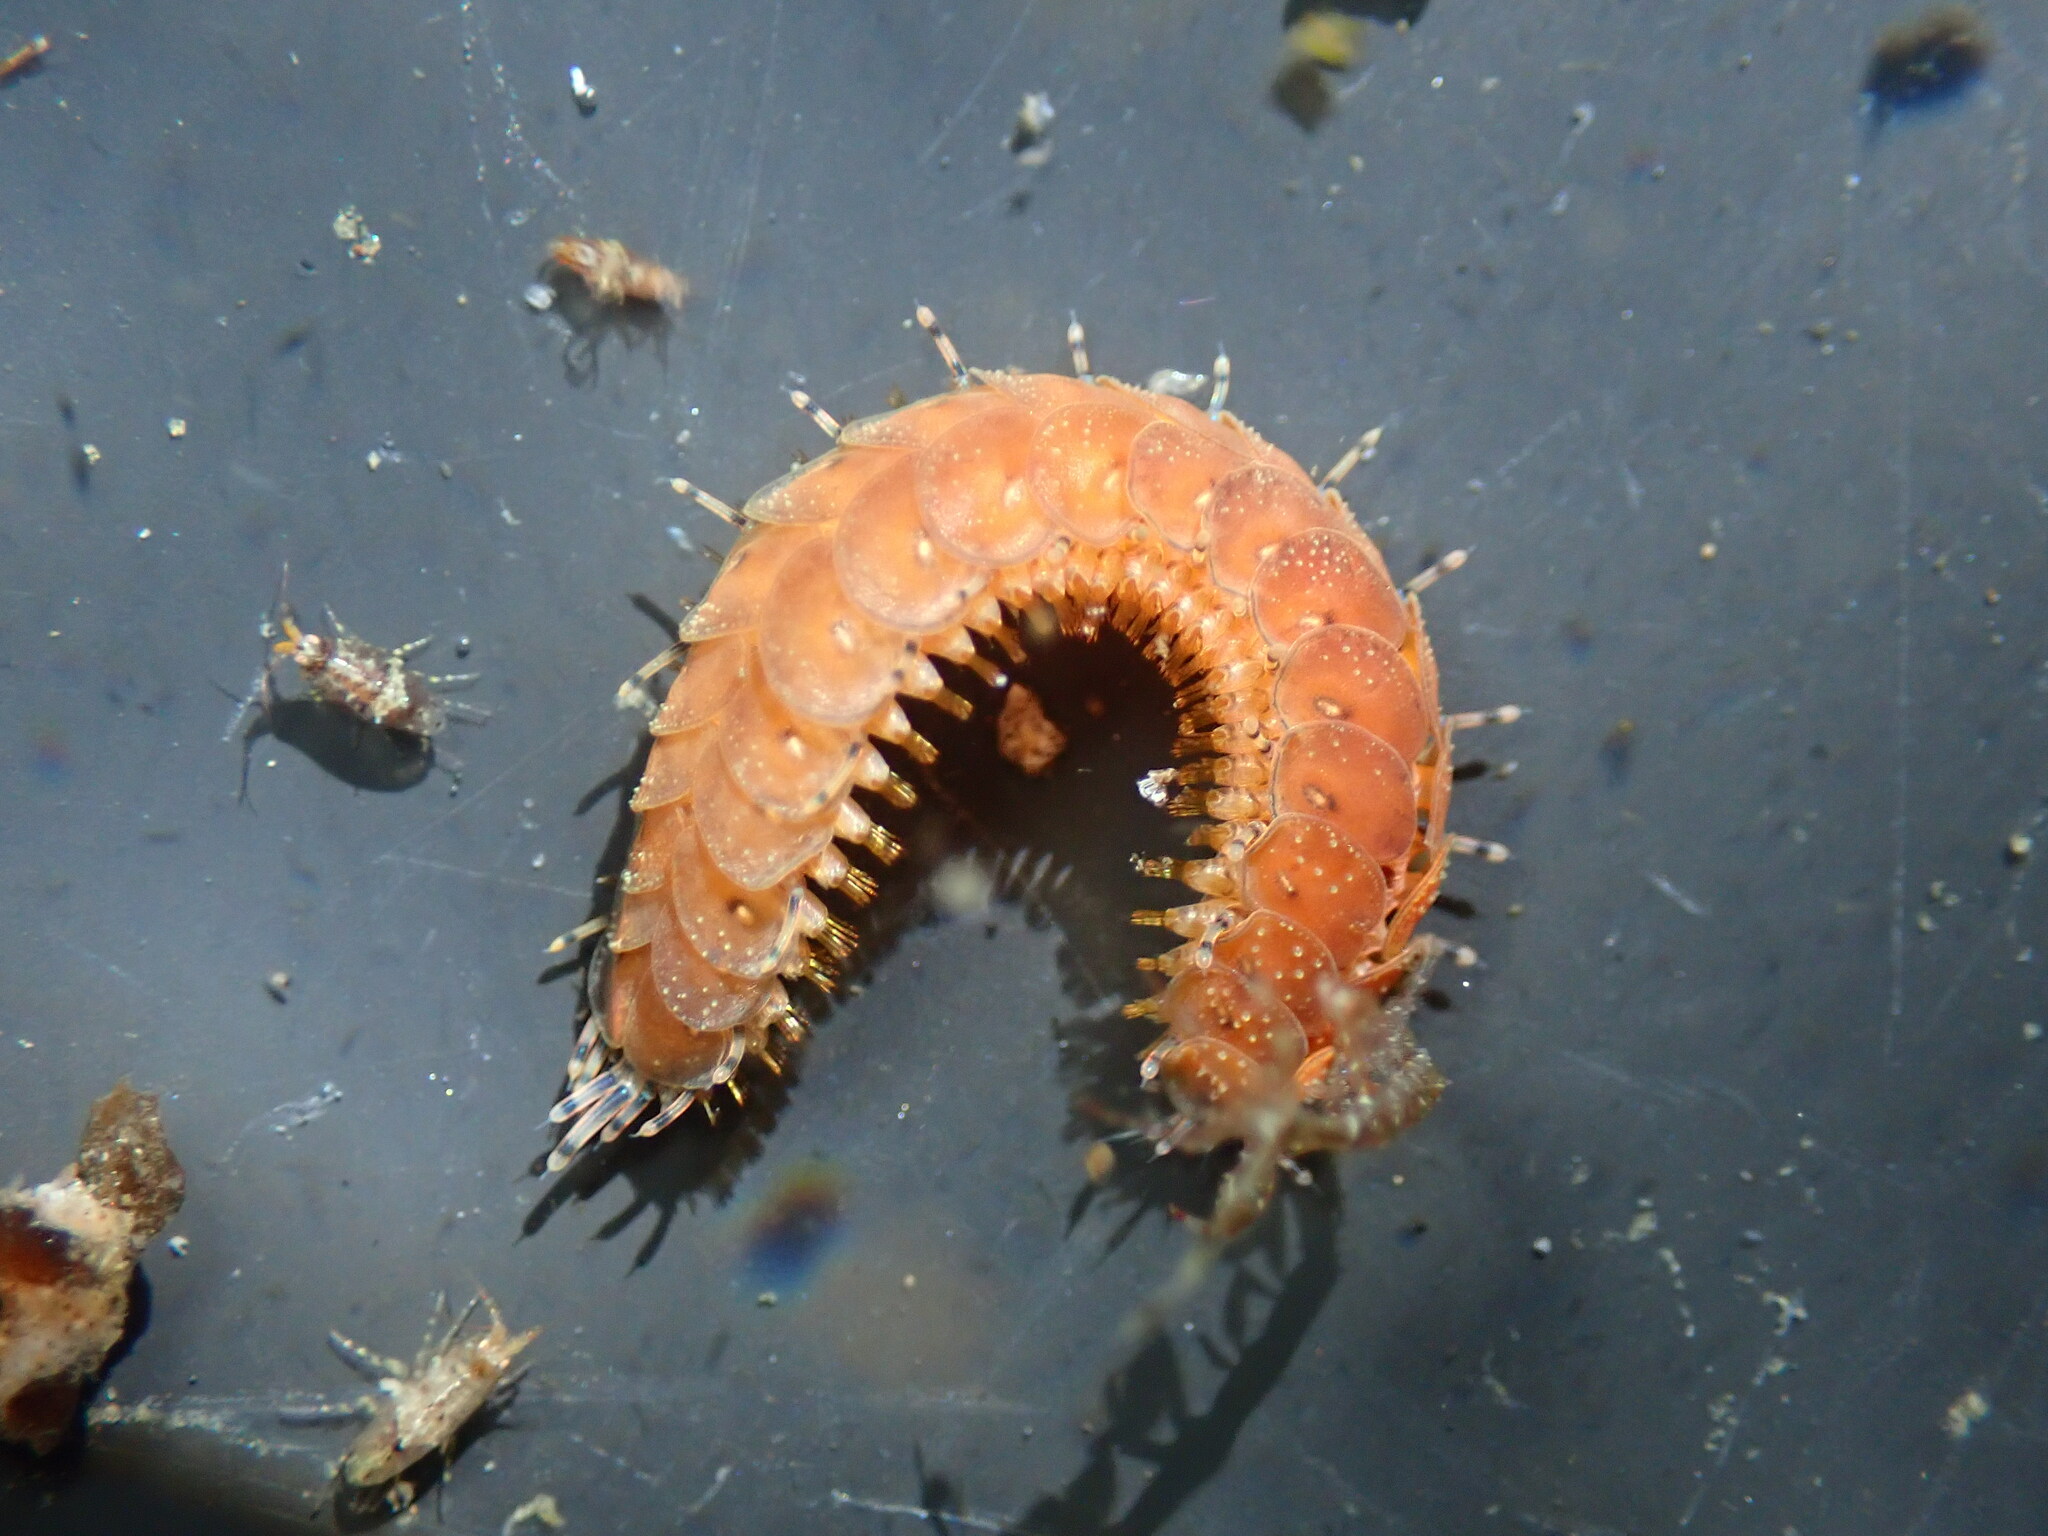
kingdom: Animalia
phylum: Annelida
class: Polychaeta
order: Phyllodocida
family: Polynoidae
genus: Halosydna
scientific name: Halosydna brevisetosa
